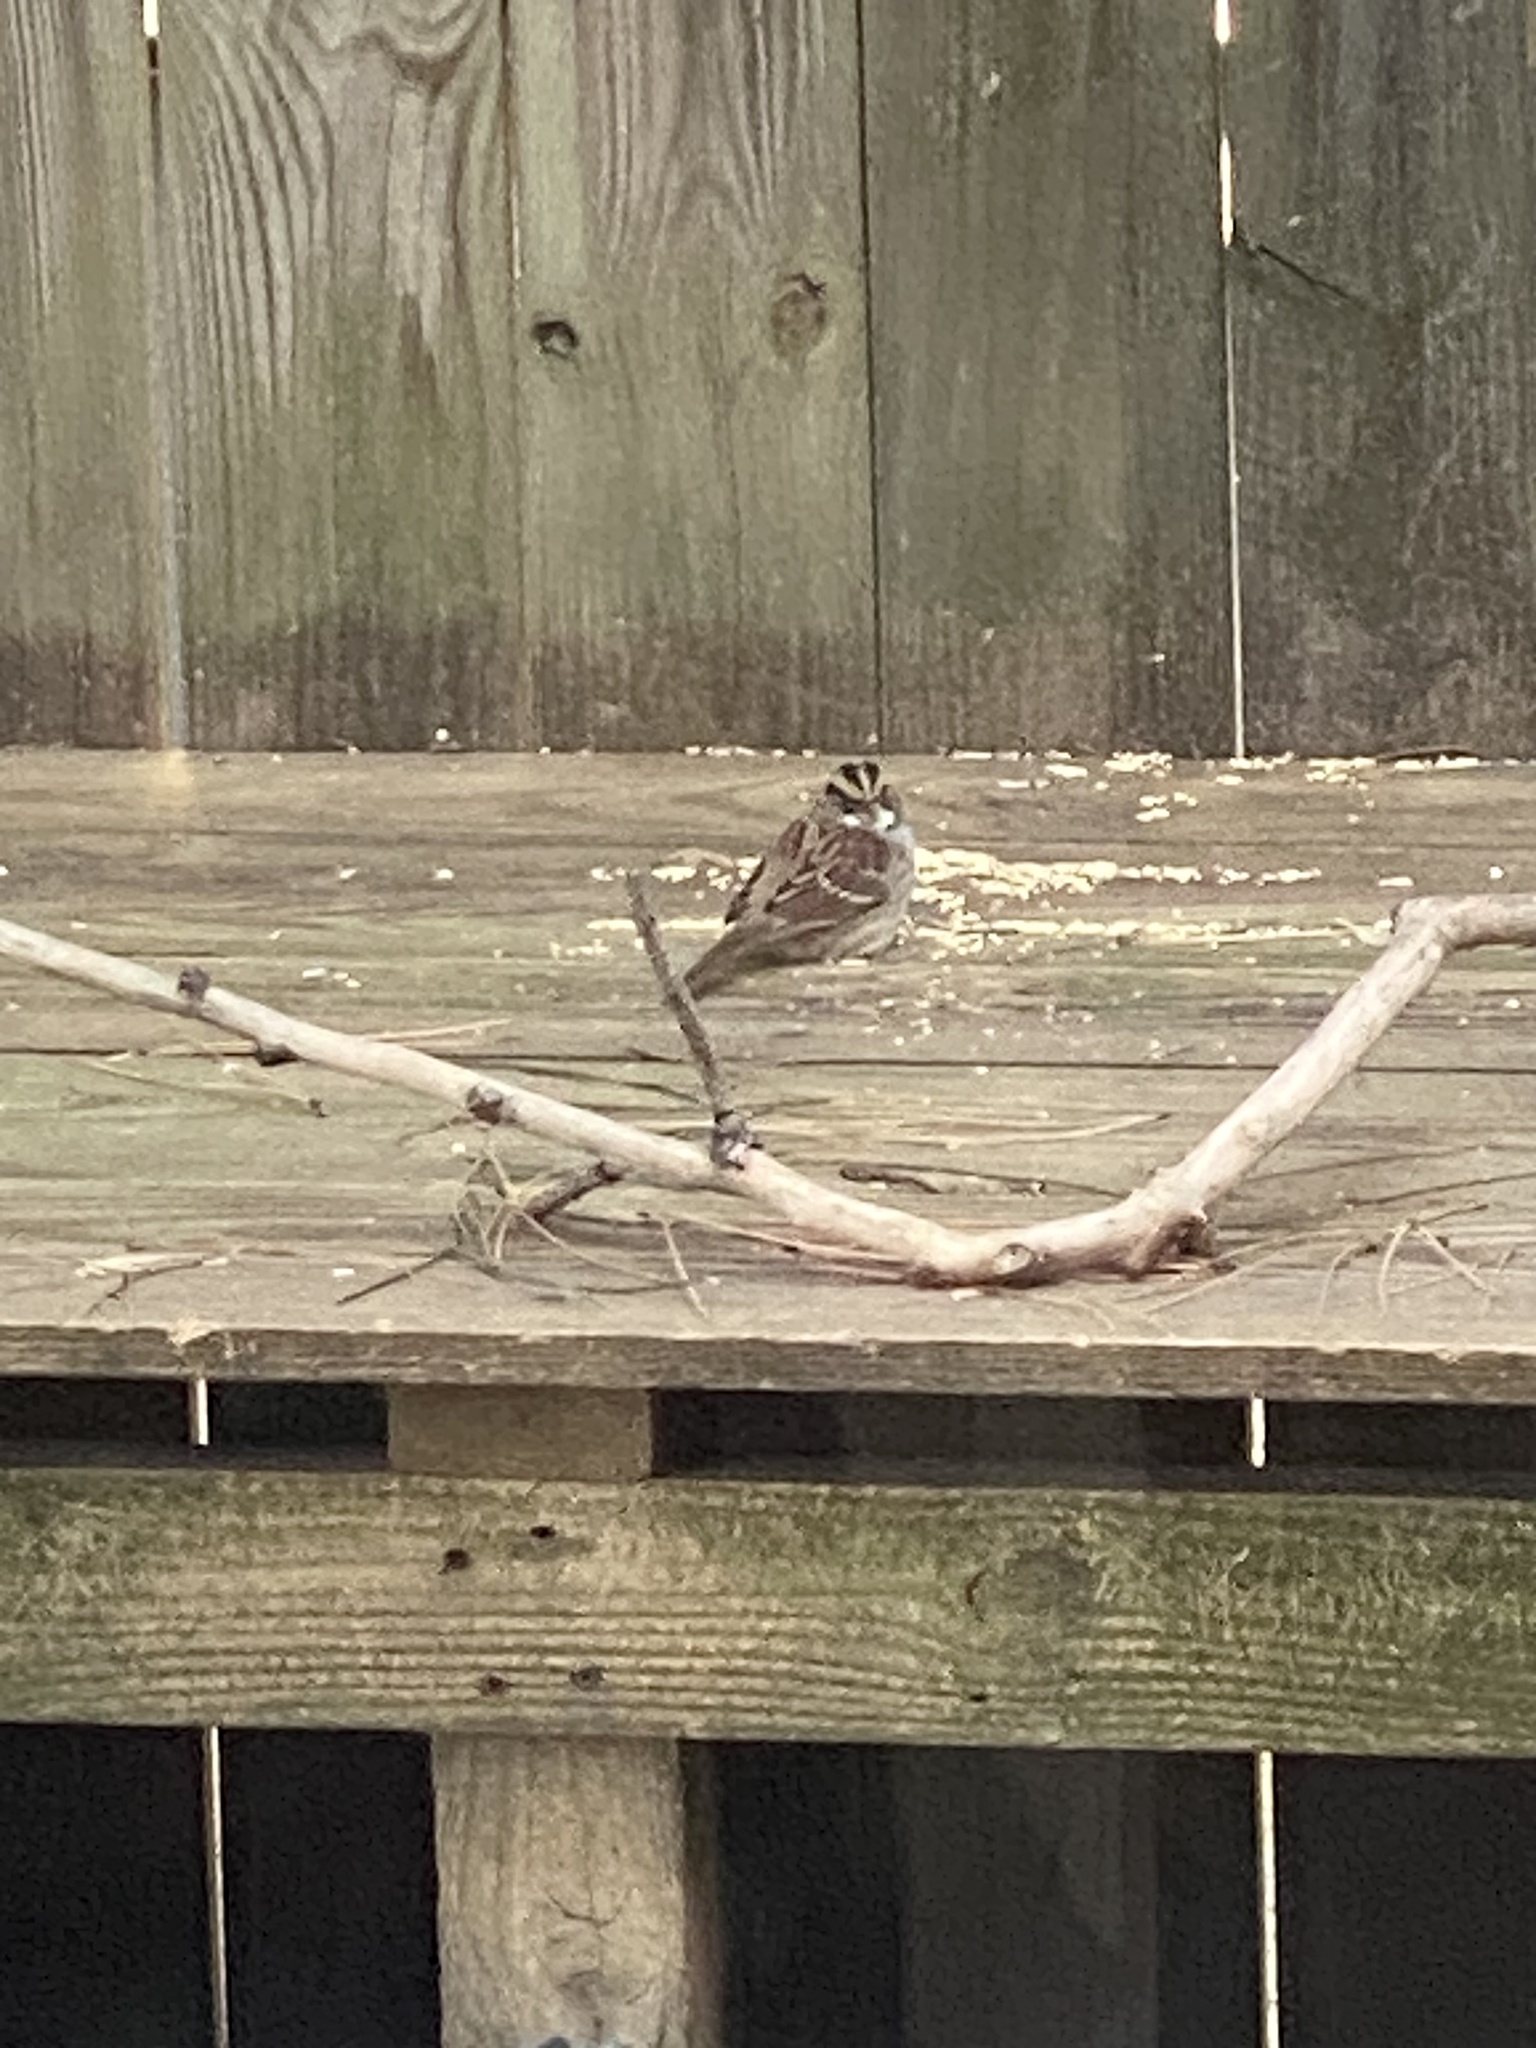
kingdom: Animalia
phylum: Chordata
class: Aves
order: Passeriformes
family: Passerellidae
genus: Zonotrichia
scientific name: Zonotrichia albicollis
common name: White-throated sparrow
